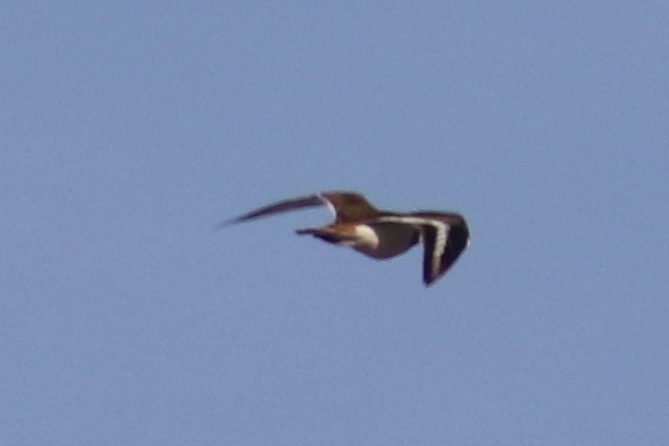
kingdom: Animalia
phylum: Chordata
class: Aves
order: Charadriiformes
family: Charadriidae
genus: Charadrius
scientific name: Charadrius vociferus
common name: Killdeer
